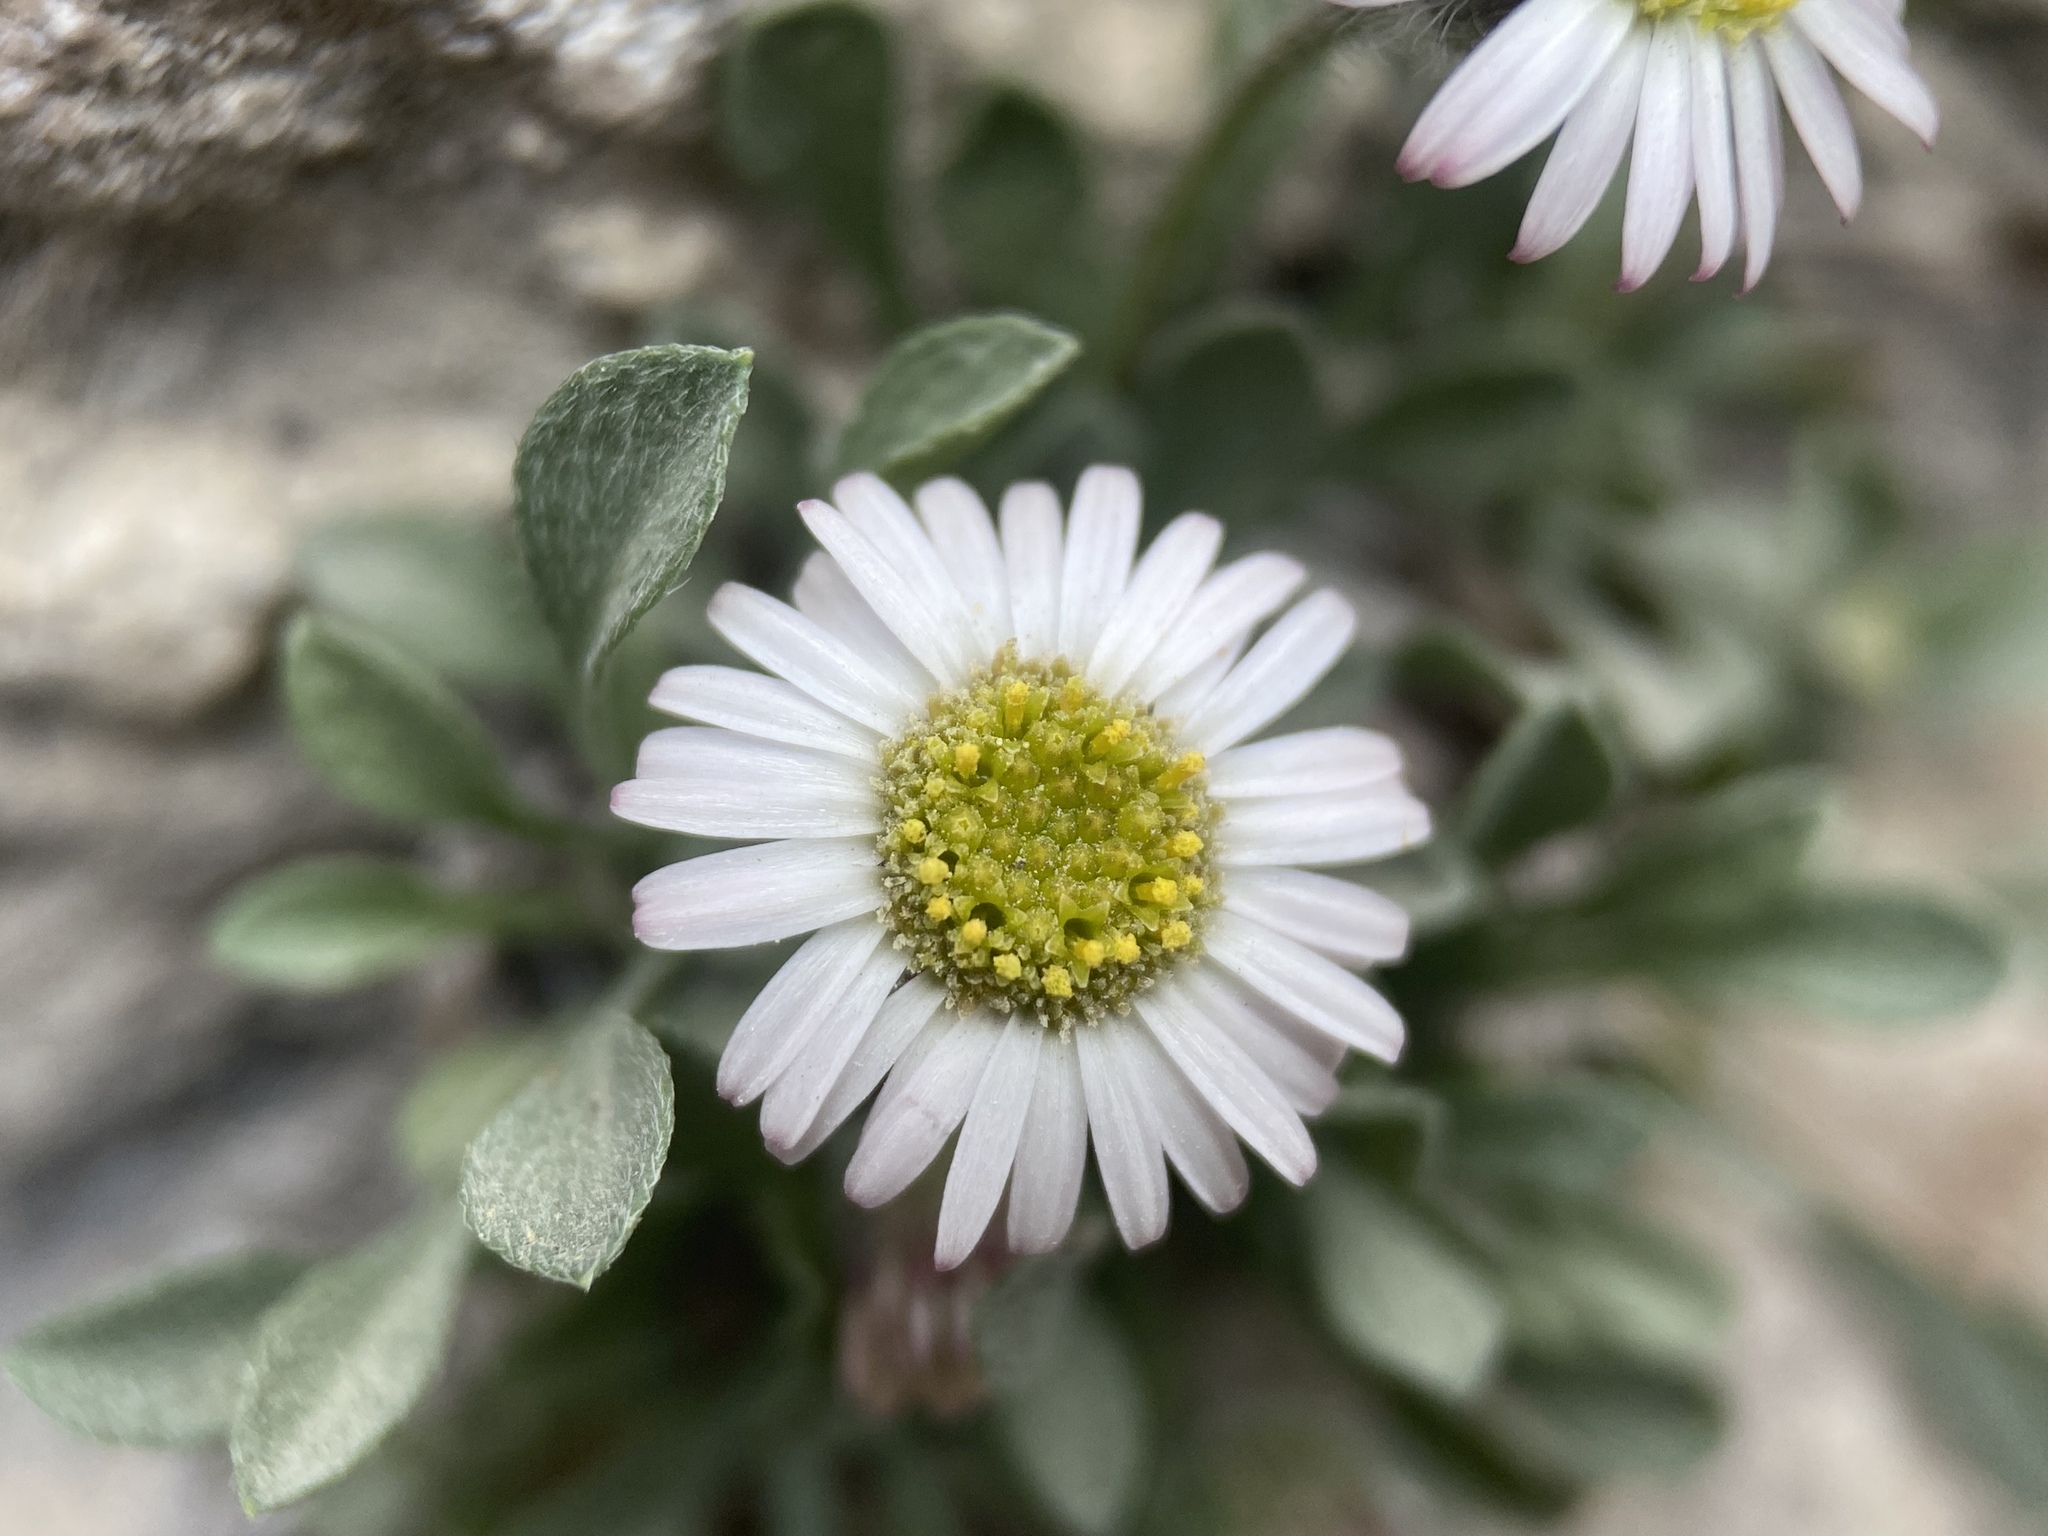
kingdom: Plantae
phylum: Tracheophyta
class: Magnoliopsida
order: Asterales
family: Asteraceae
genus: Erigeron
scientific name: Erigeron uncialis
